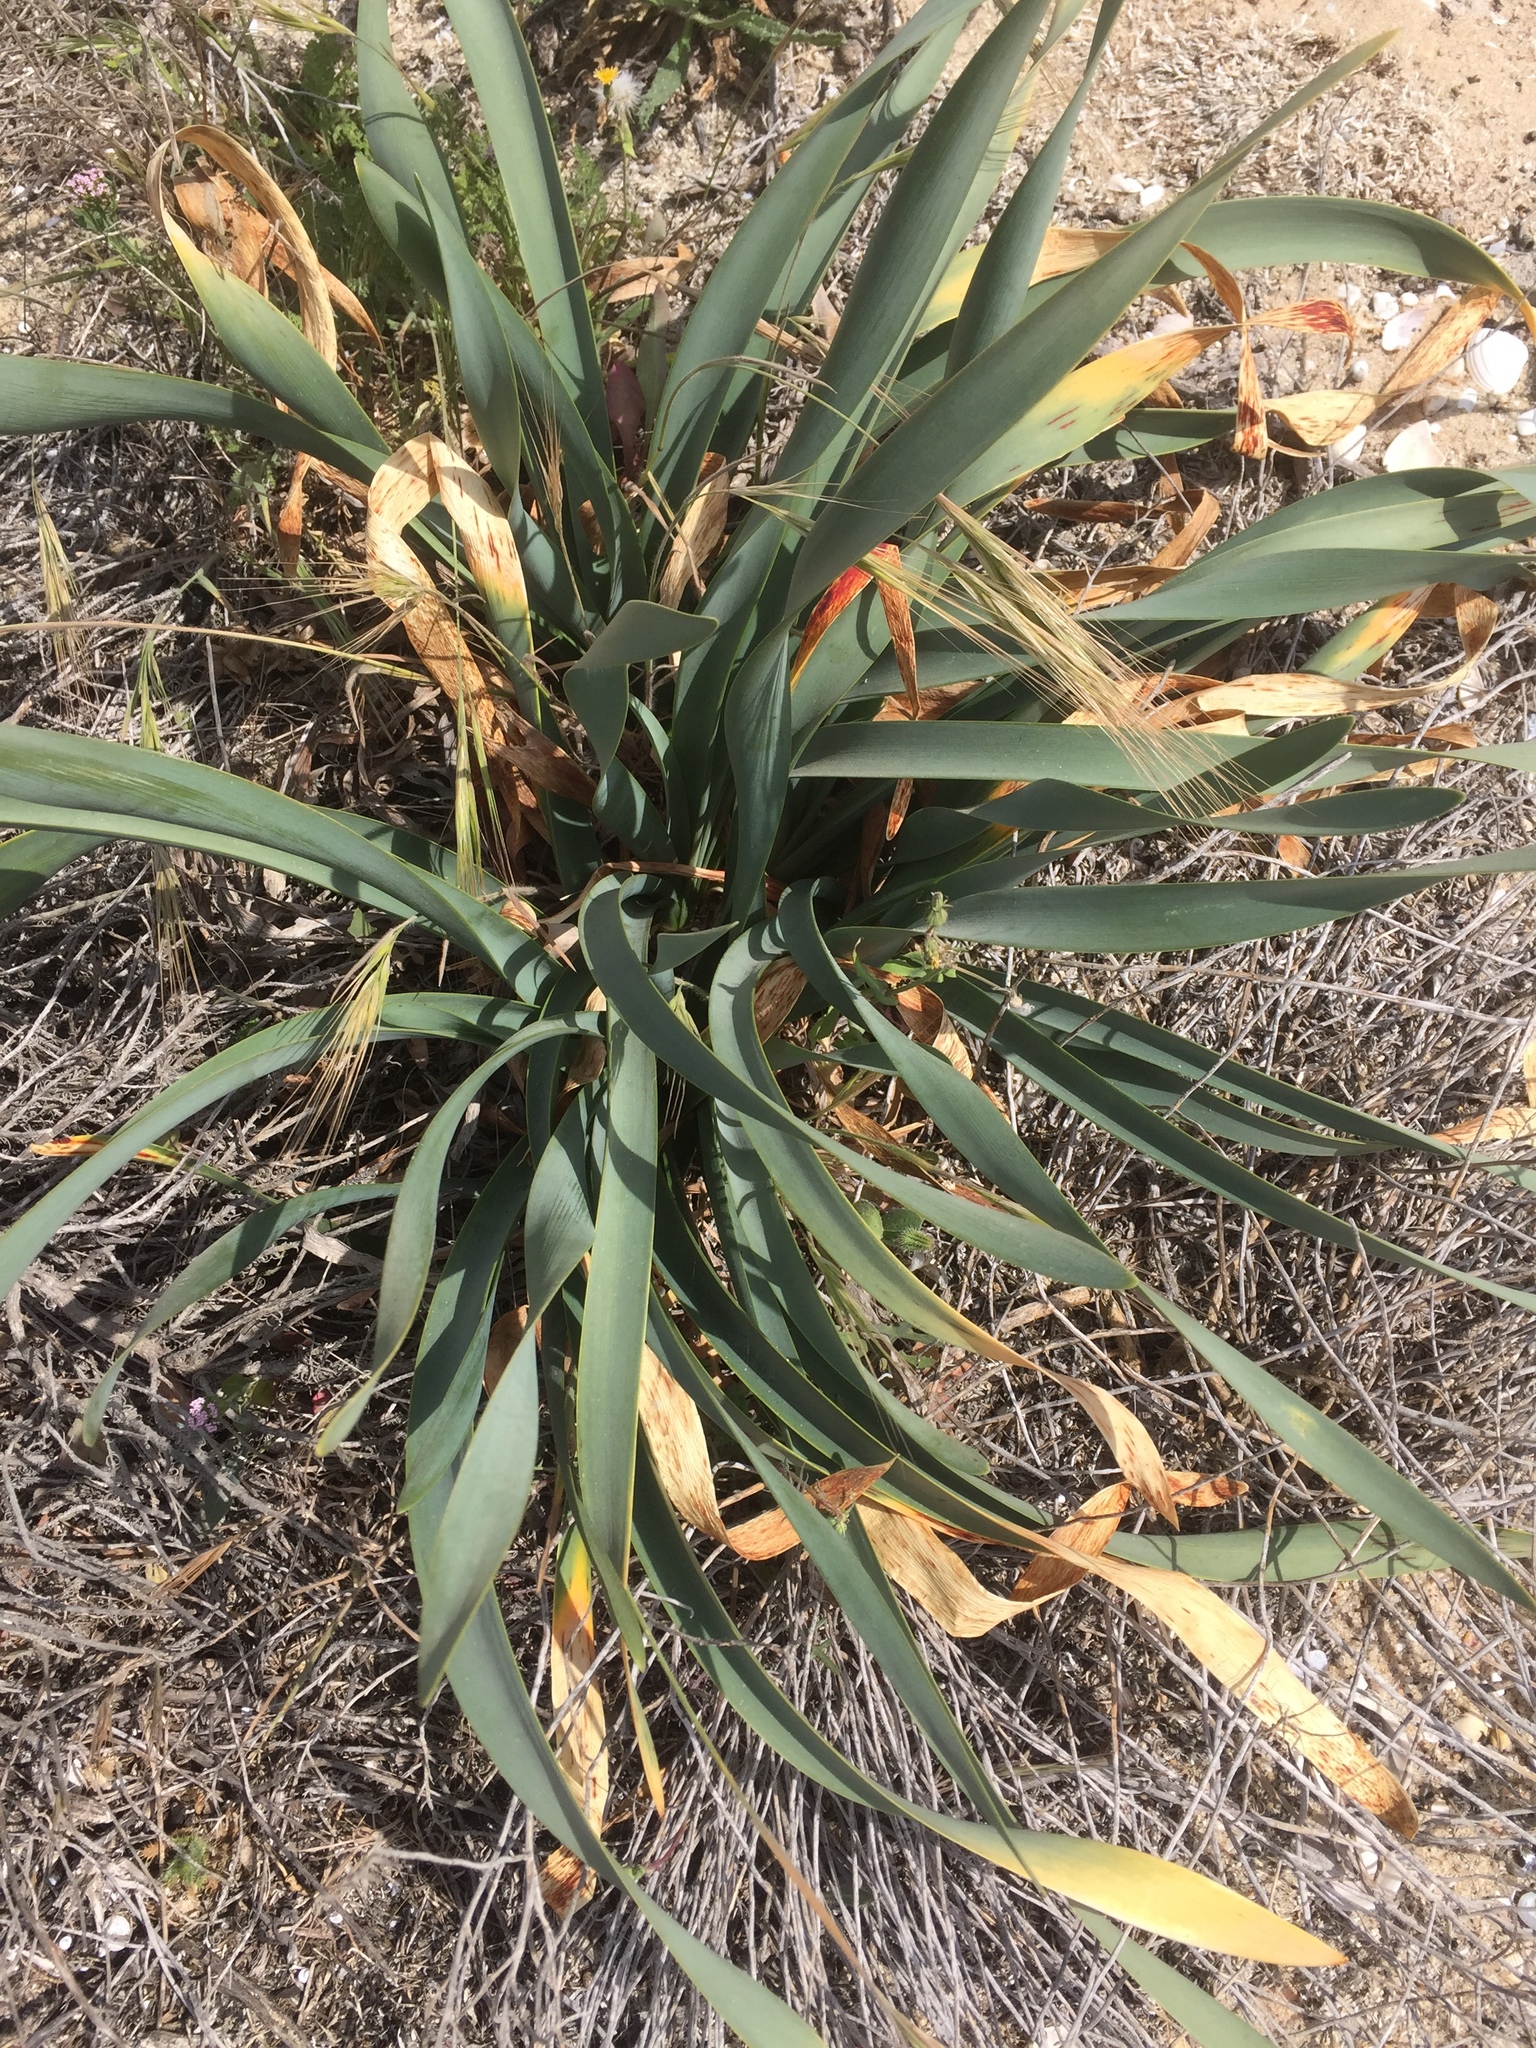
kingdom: Plantae
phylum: Tracheophyta
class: Liliopsida
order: Asparagales
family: Amaryllidaceae
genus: Pancratium
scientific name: Pancratium maritimum
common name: Sea-daffodil
